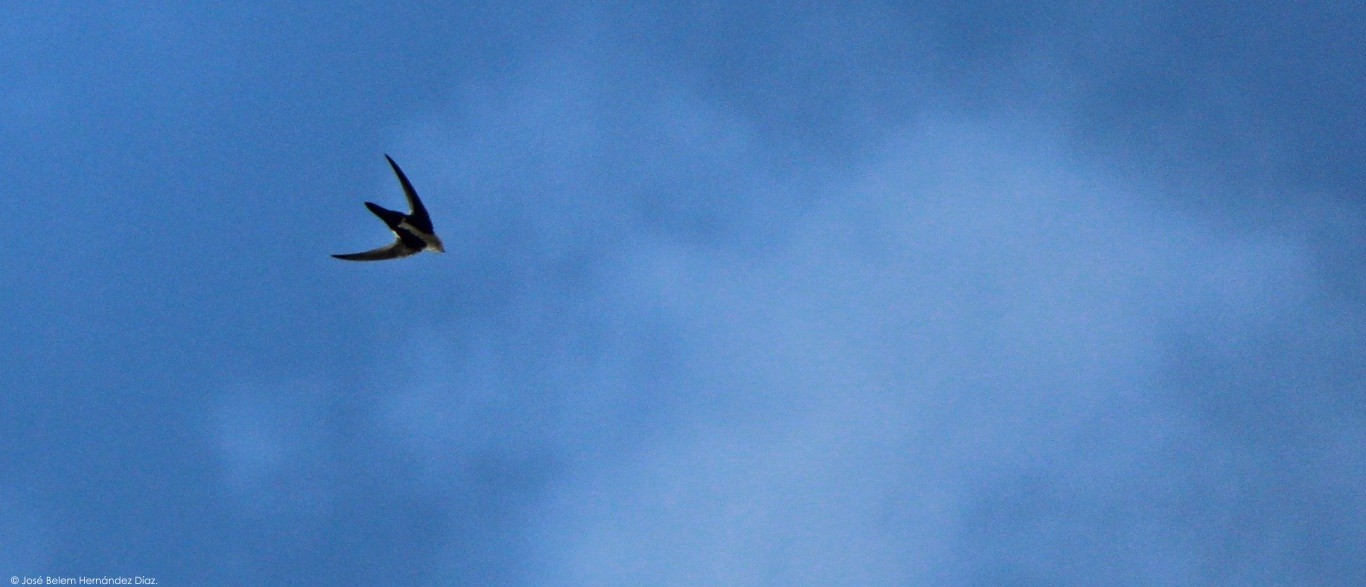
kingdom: Animalia
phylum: Chordata
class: Aves
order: Apodiformes
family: Apodidae
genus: Aeronautes
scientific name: Aeronautes saxatalis
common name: White-throated swift
